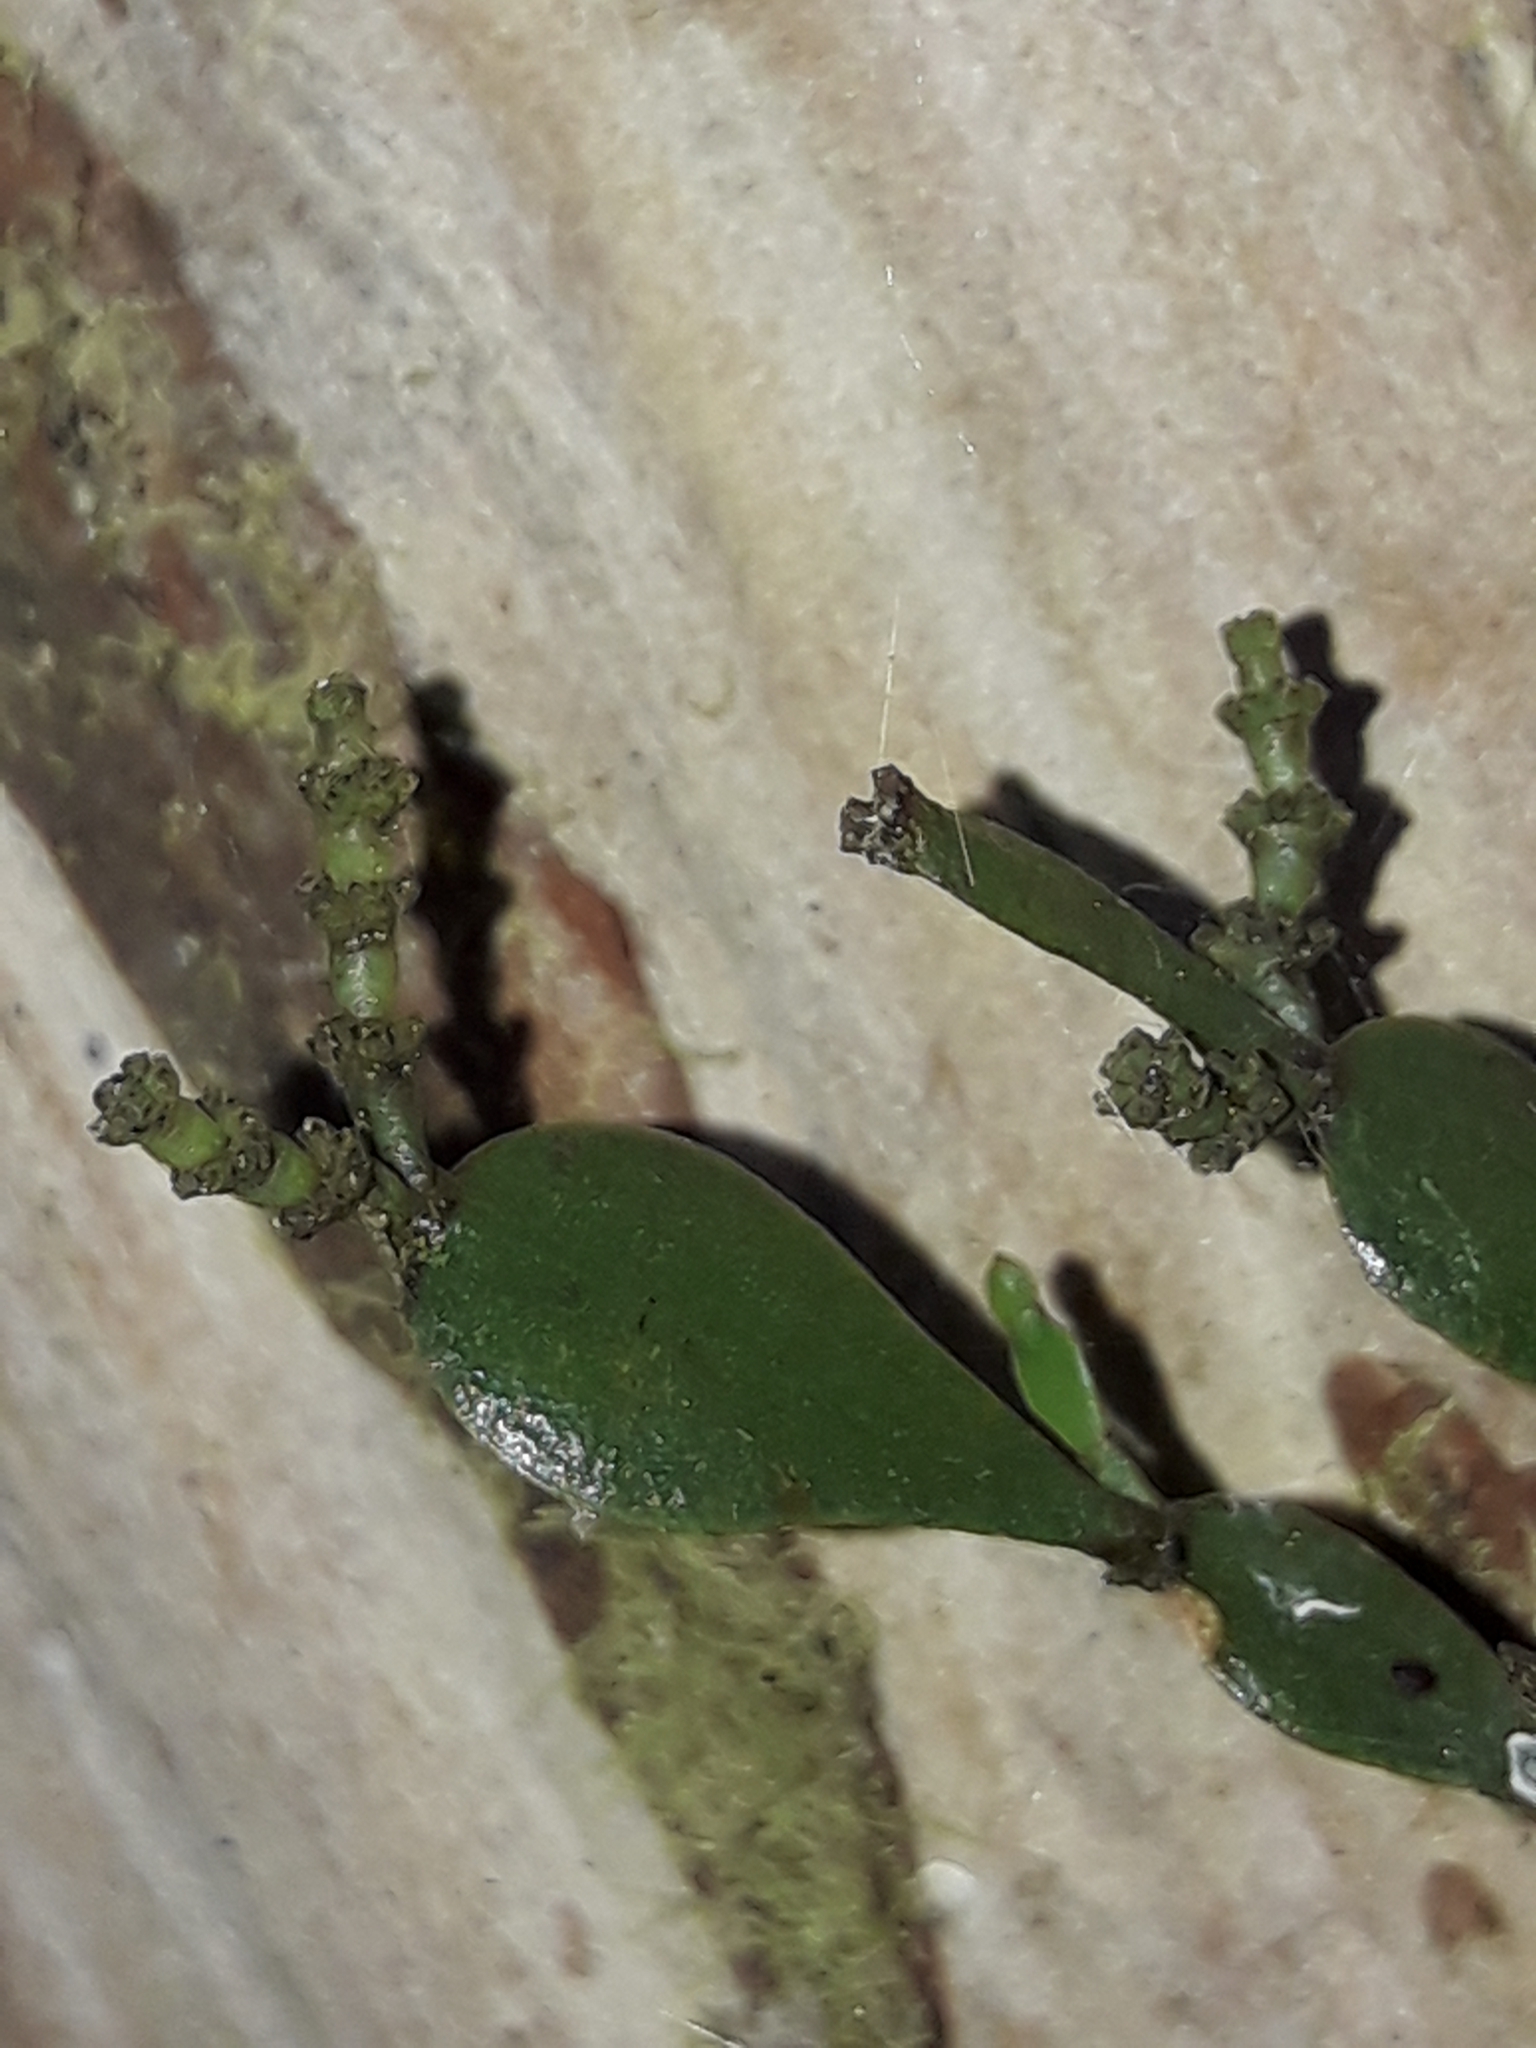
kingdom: Plantae
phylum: Tracheophyta
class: Magnoliopsida
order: Santalales
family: Viscaceae
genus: Korthalsella
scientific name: Korthalsella lindsayi
